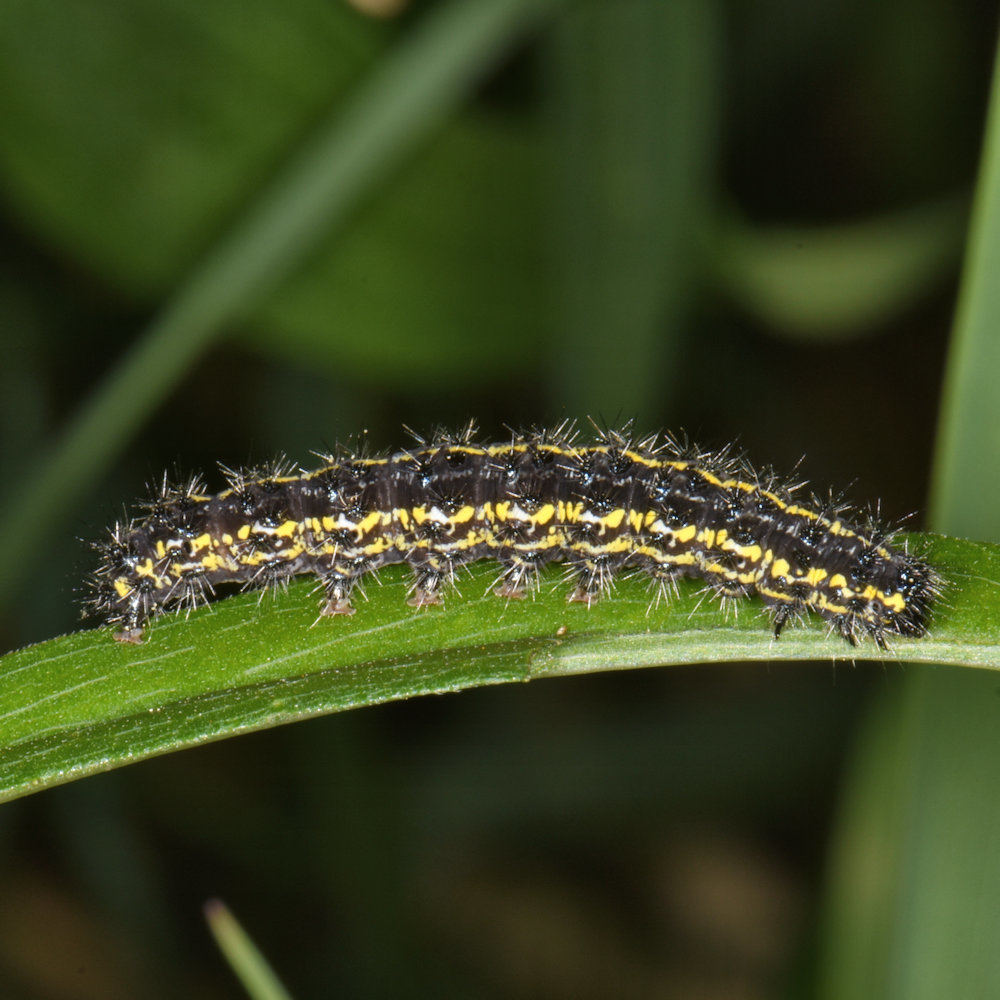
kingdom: Animalia
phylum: Arthropoda
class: Insecta
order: Lepidoptera
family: Erebidae
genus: Haploa
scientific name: Haploa confusa
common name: Confused haploa moth
